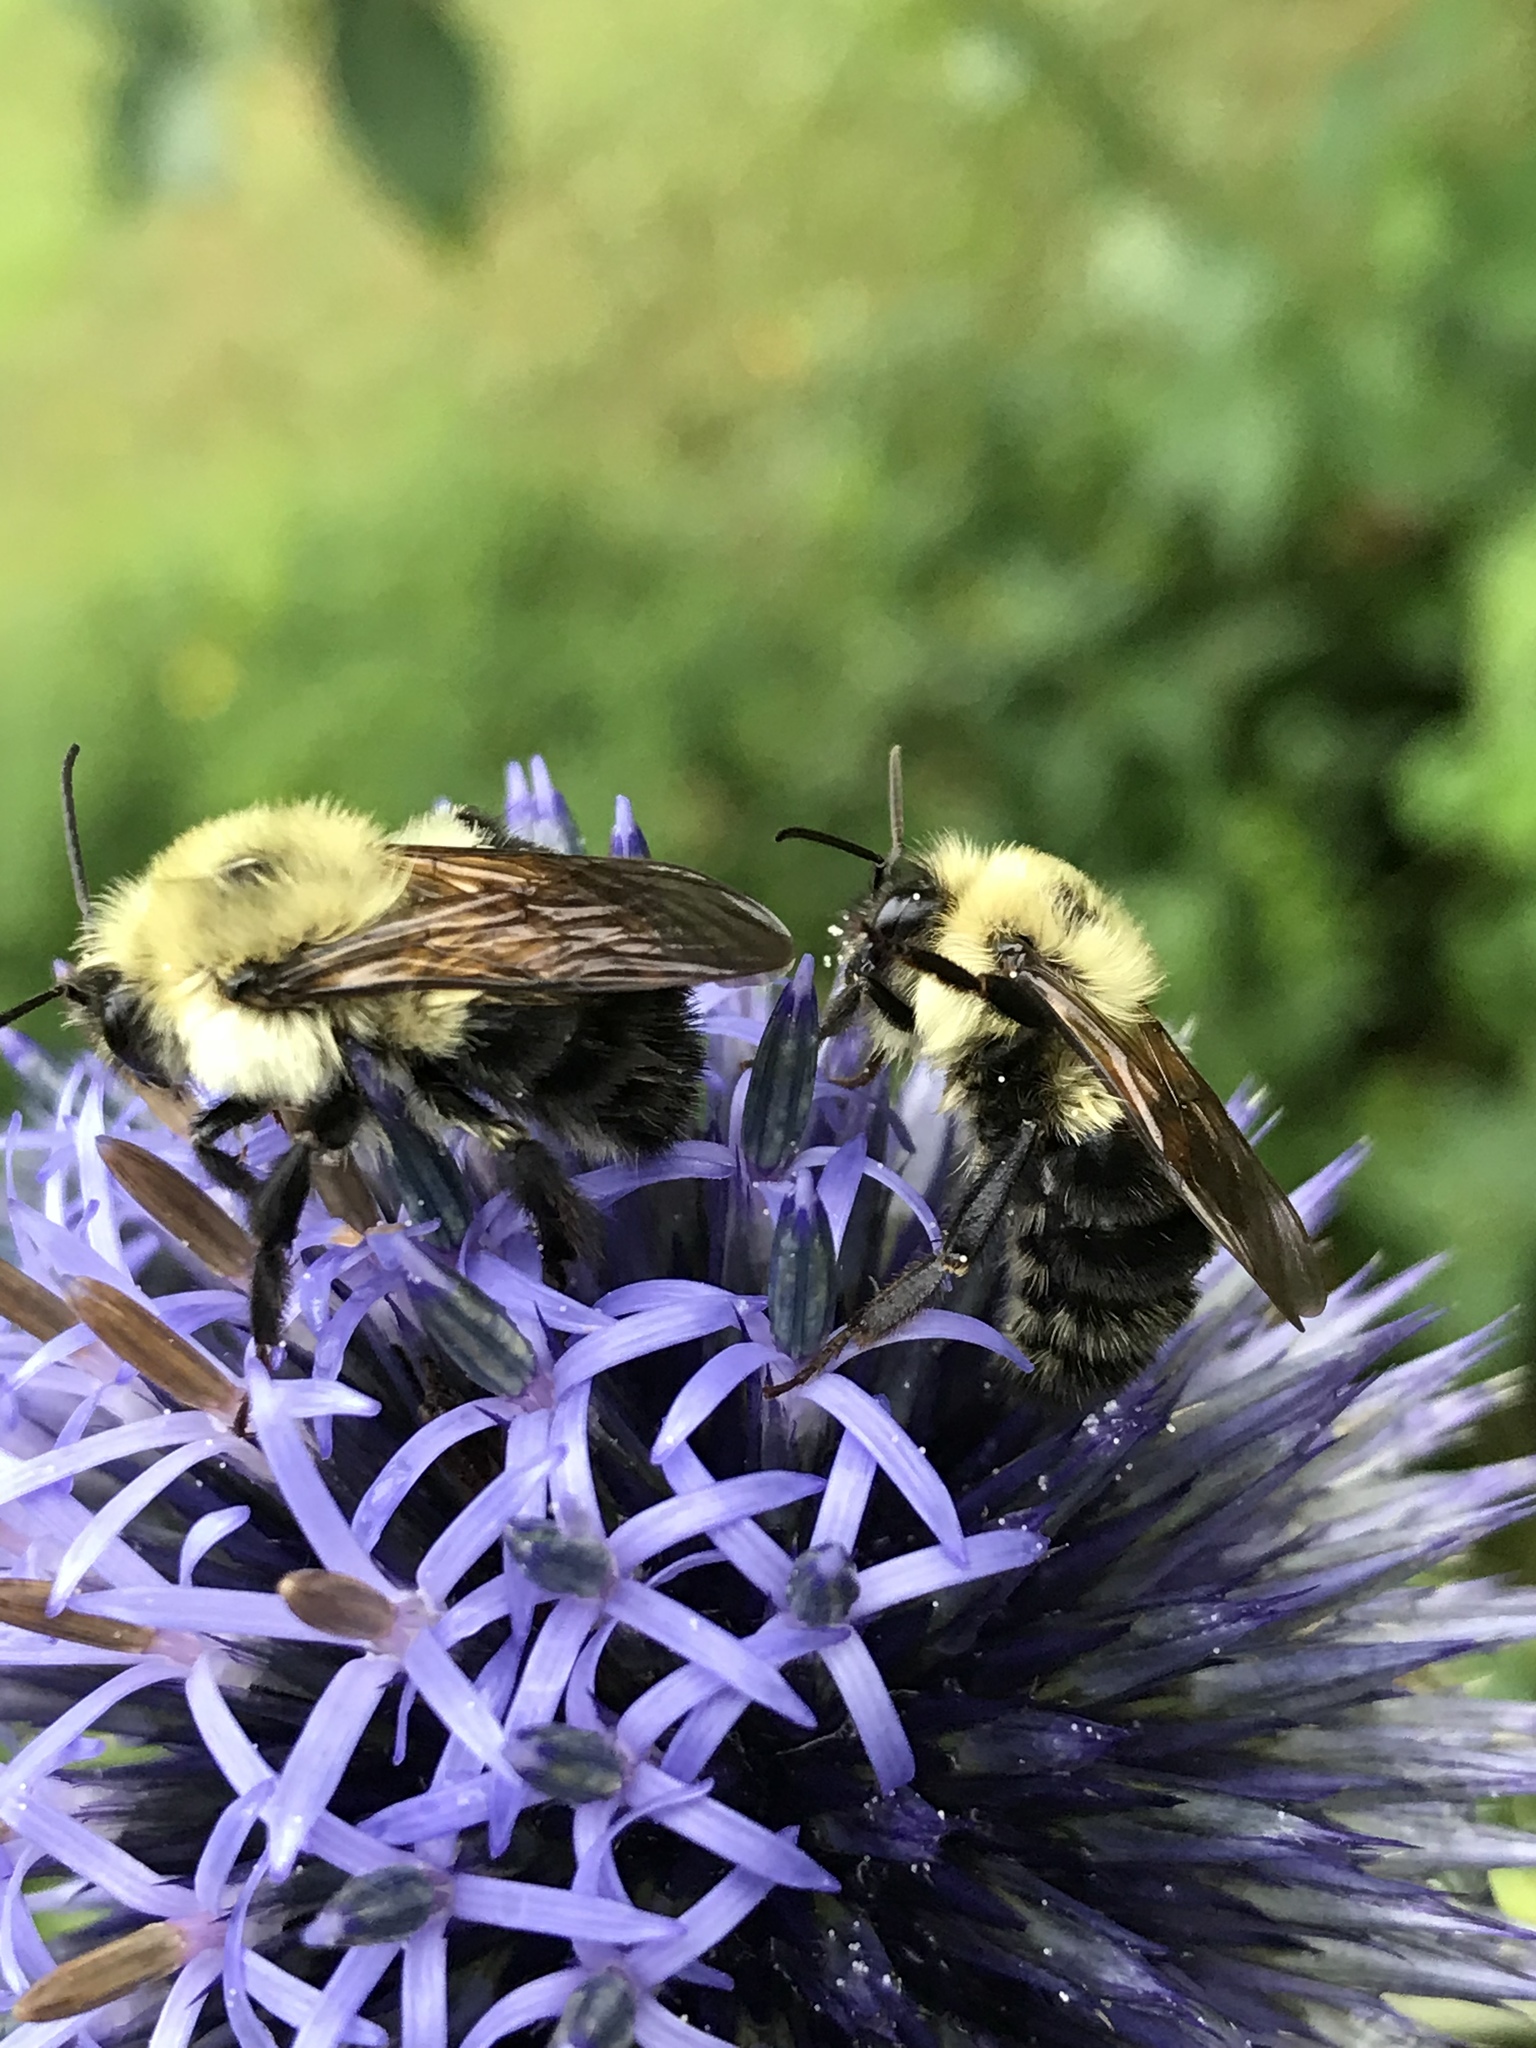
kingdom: Animalia
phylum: Arthropoda
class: Insecta
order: Hymenoptera
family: Apidae
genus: Bombus
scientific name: Bombus bimaculatus
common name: Two-spotted bumble bee
